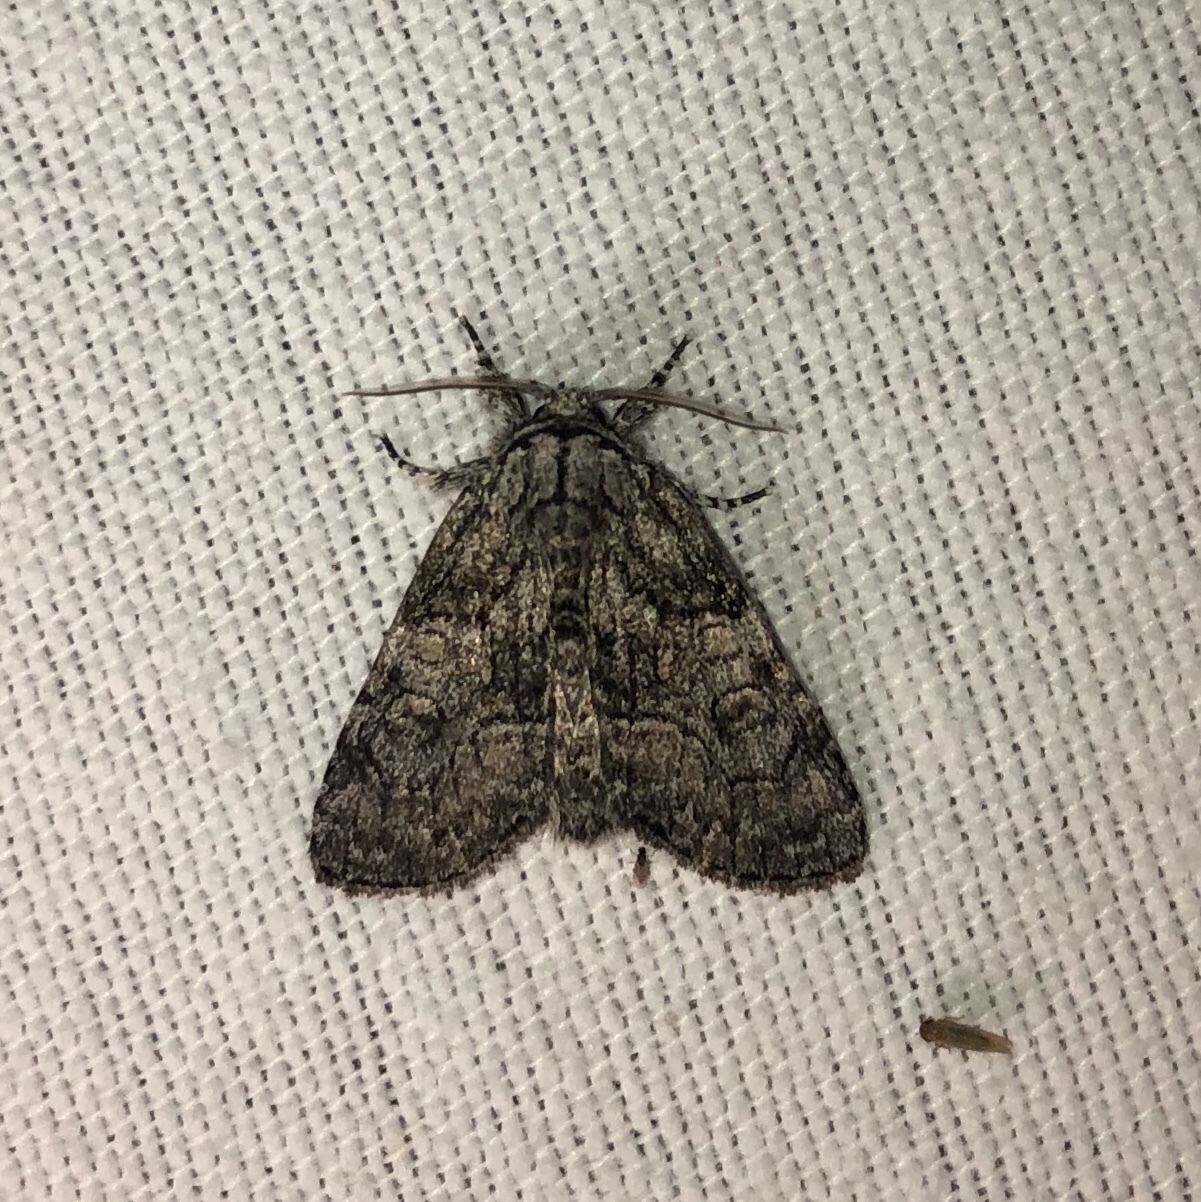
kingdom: Animalia
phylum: Arthropoda
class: Insecta
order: Lepidoptera
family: Noctuidae
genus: Raphia
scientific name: Raphia frater
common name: Brother
